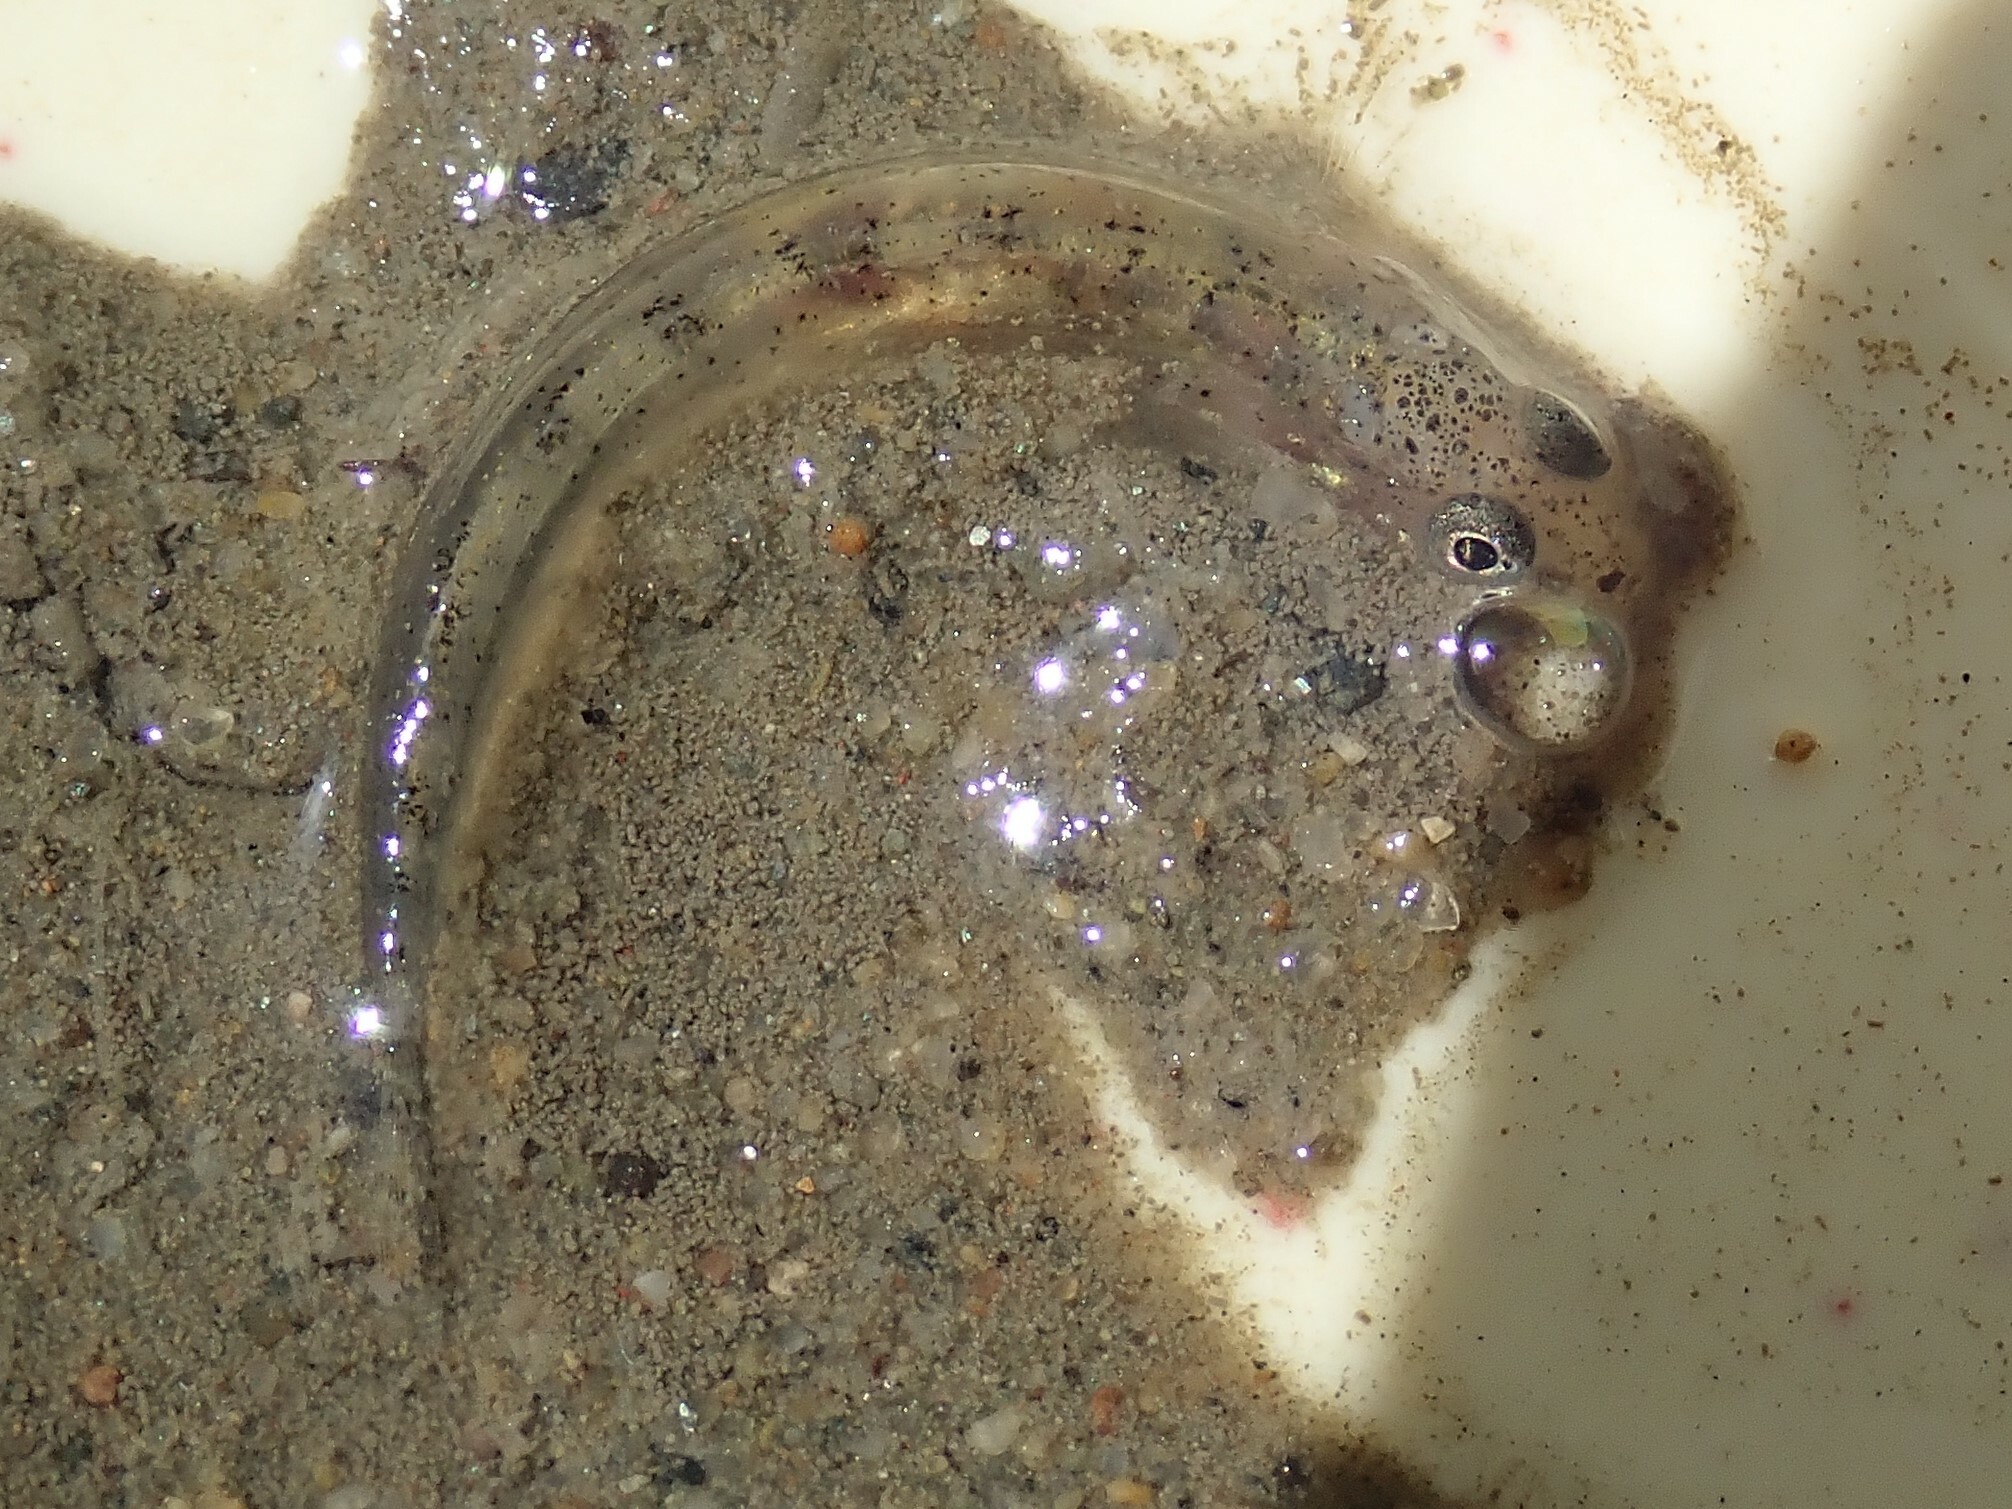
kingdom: Animalia
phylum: Chordata
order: Perciformes
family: Gobiidae
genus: Acanthogobius
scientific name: Acanthogobius flavimanus
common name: Yellowfin goby
